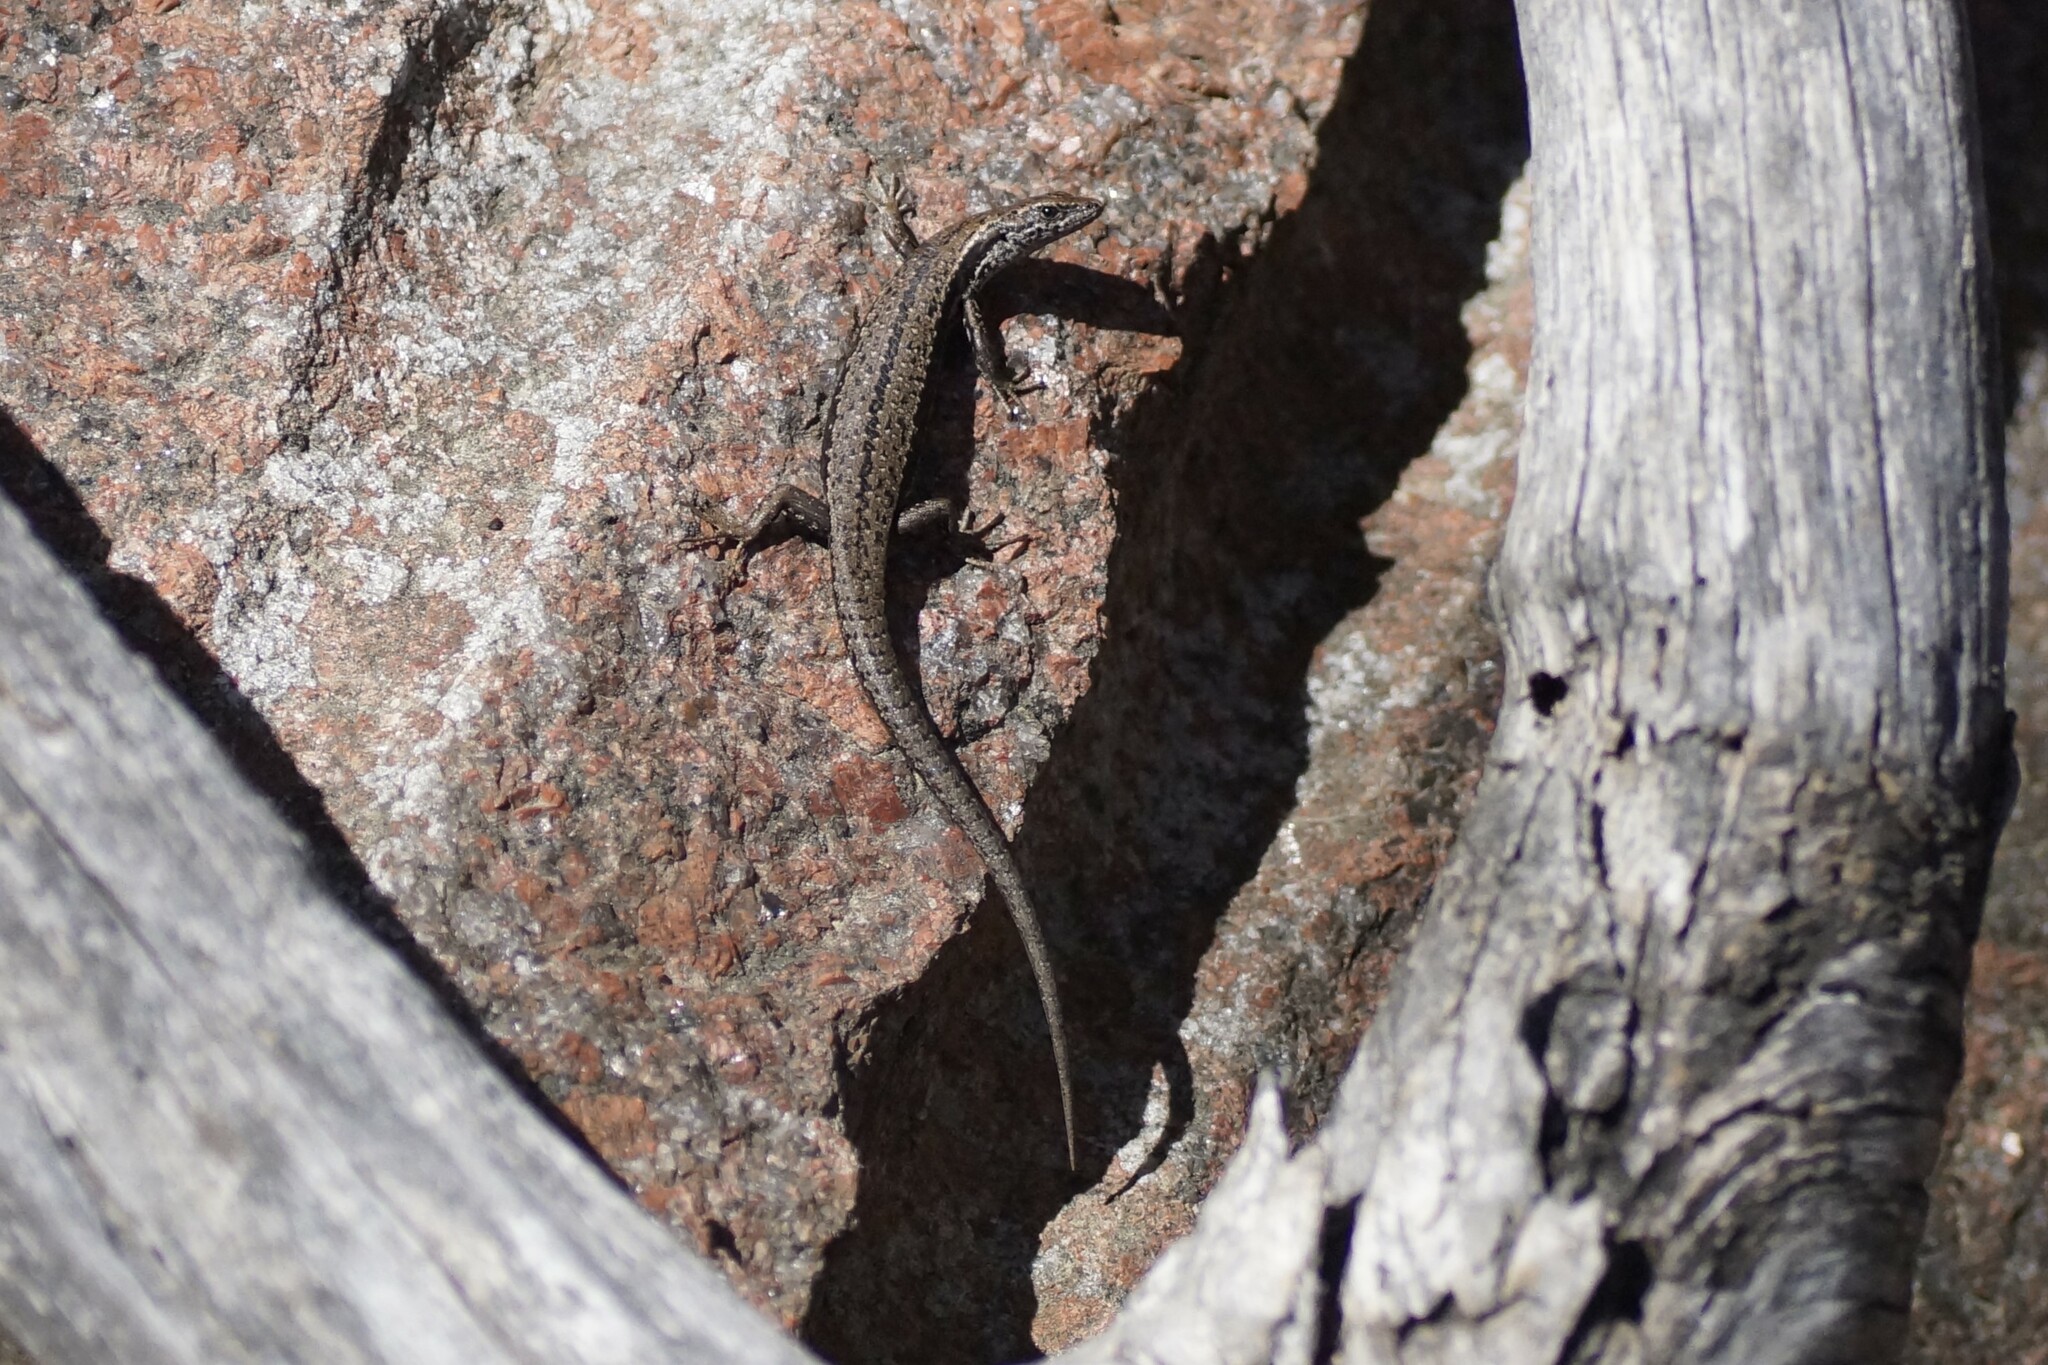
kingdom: Animalia
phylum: Chordata
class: Squamata
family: Scincidae
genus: Carinascincus
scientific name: Carinascincus pretiosus
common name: Agile cool-skink
